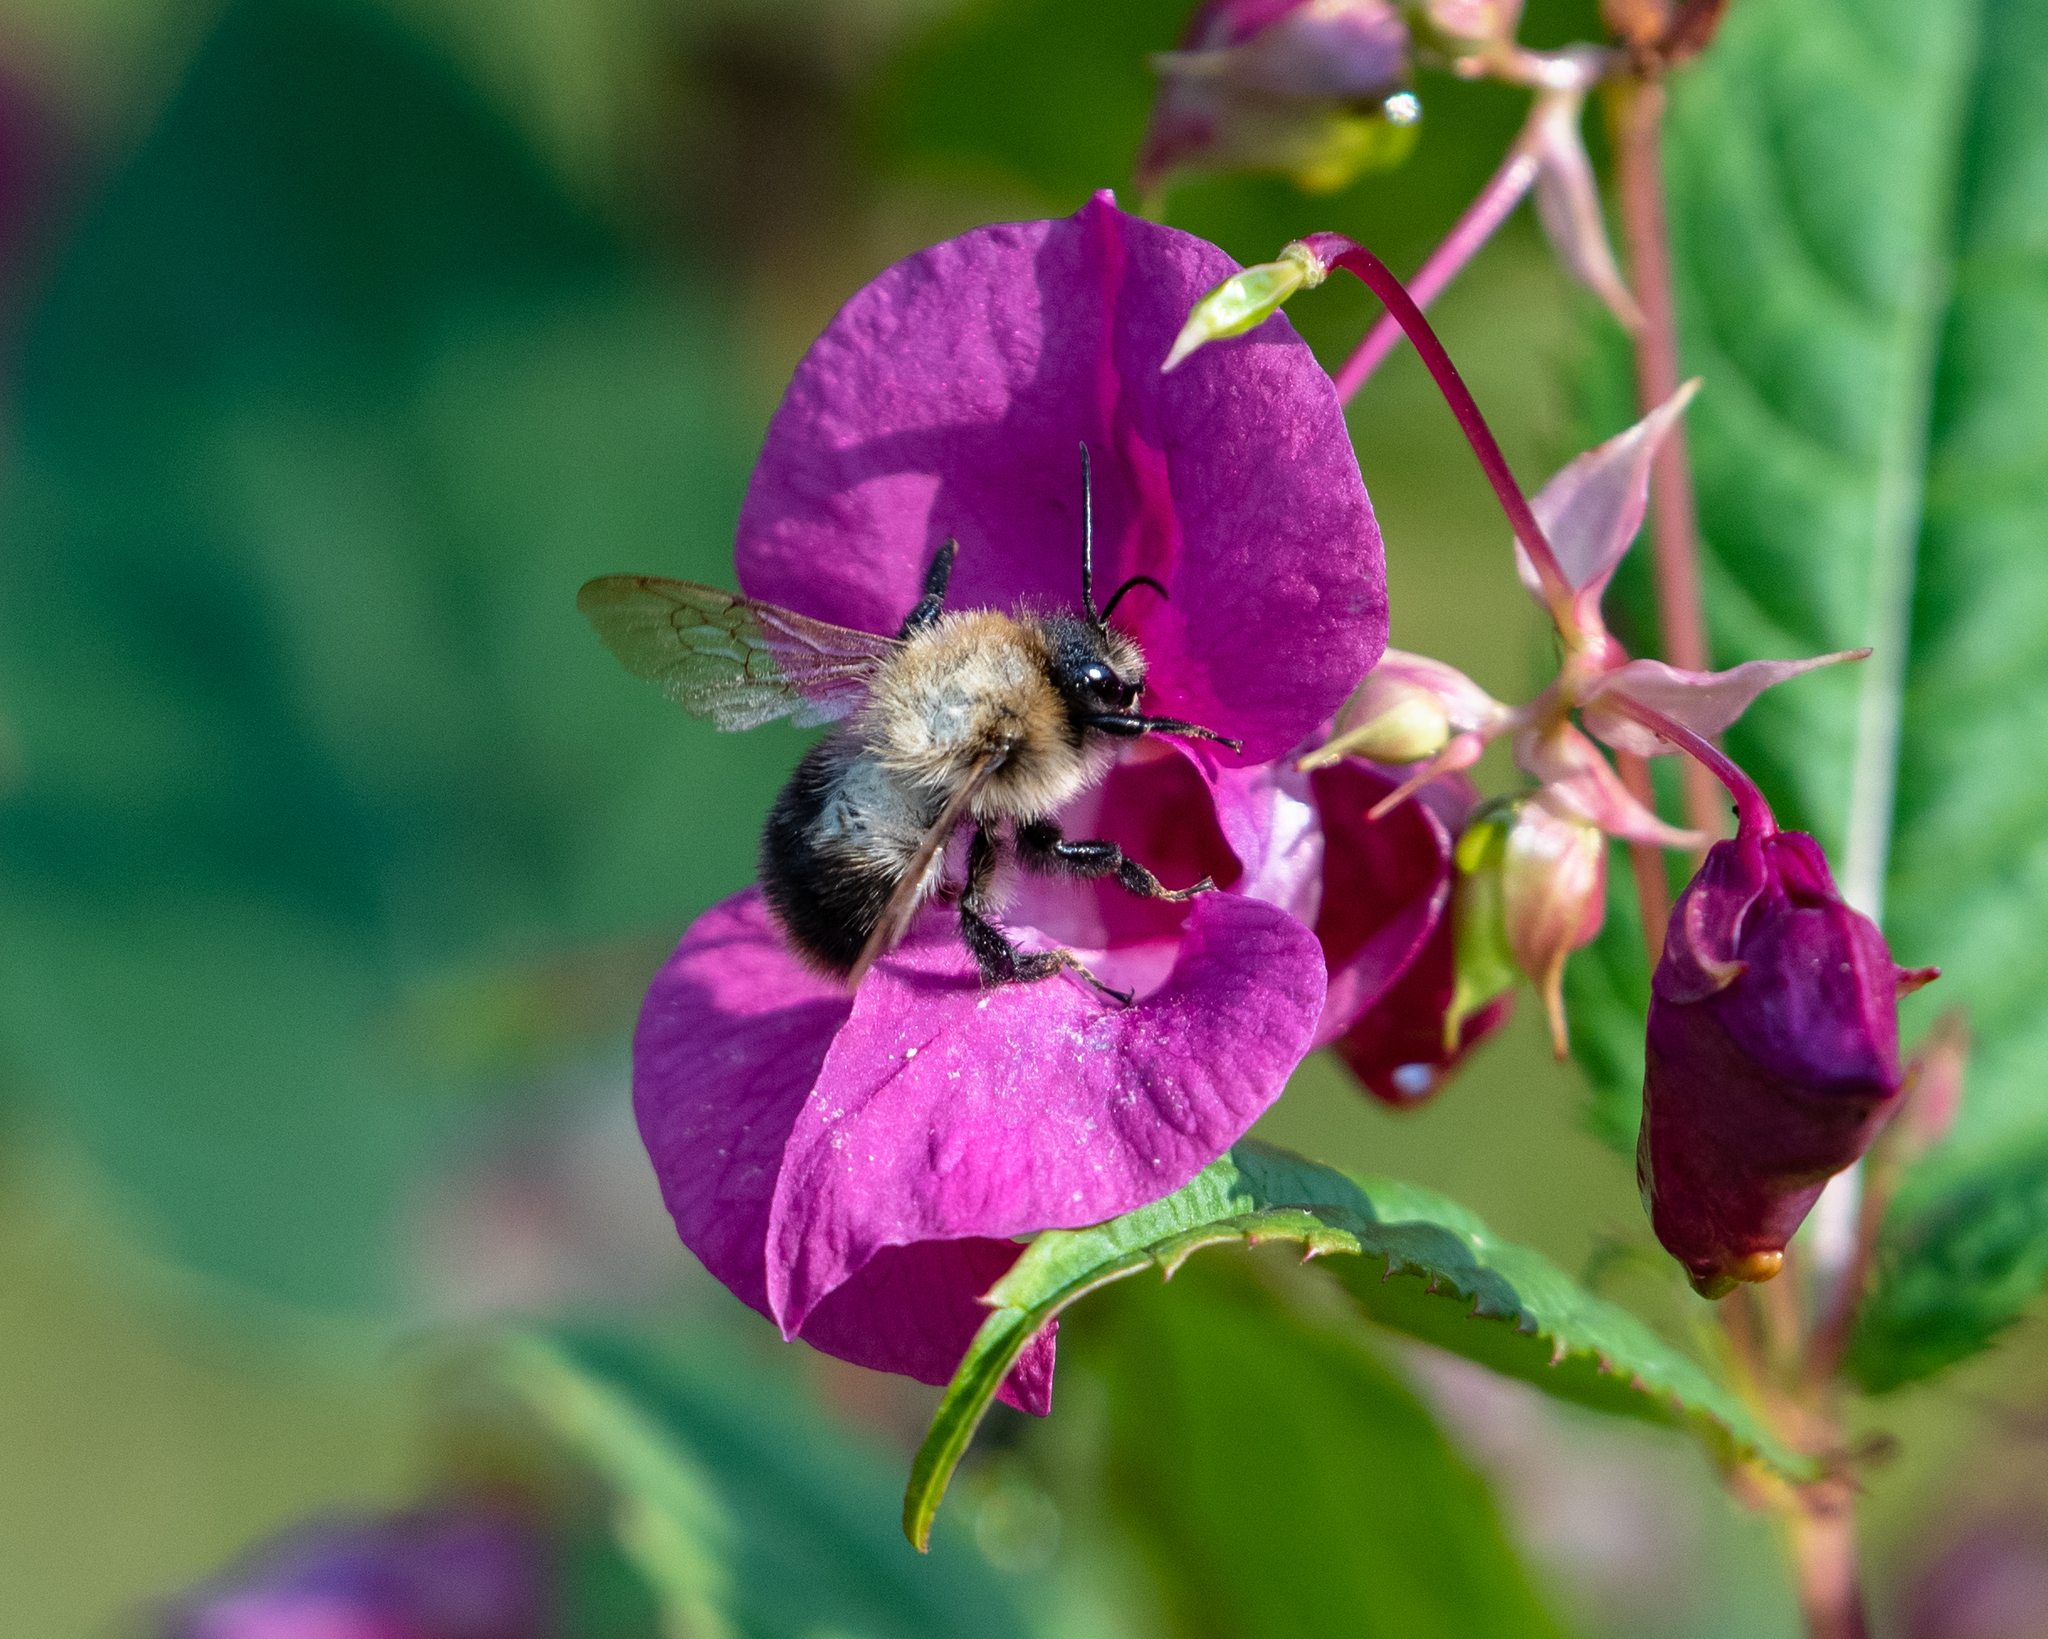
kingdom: Animalia
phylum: Arthropoda
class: Insecta
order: Hymenoptera
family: Apidae
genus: Bombus
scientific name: Bombus pascuorum
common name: Common carder bee
